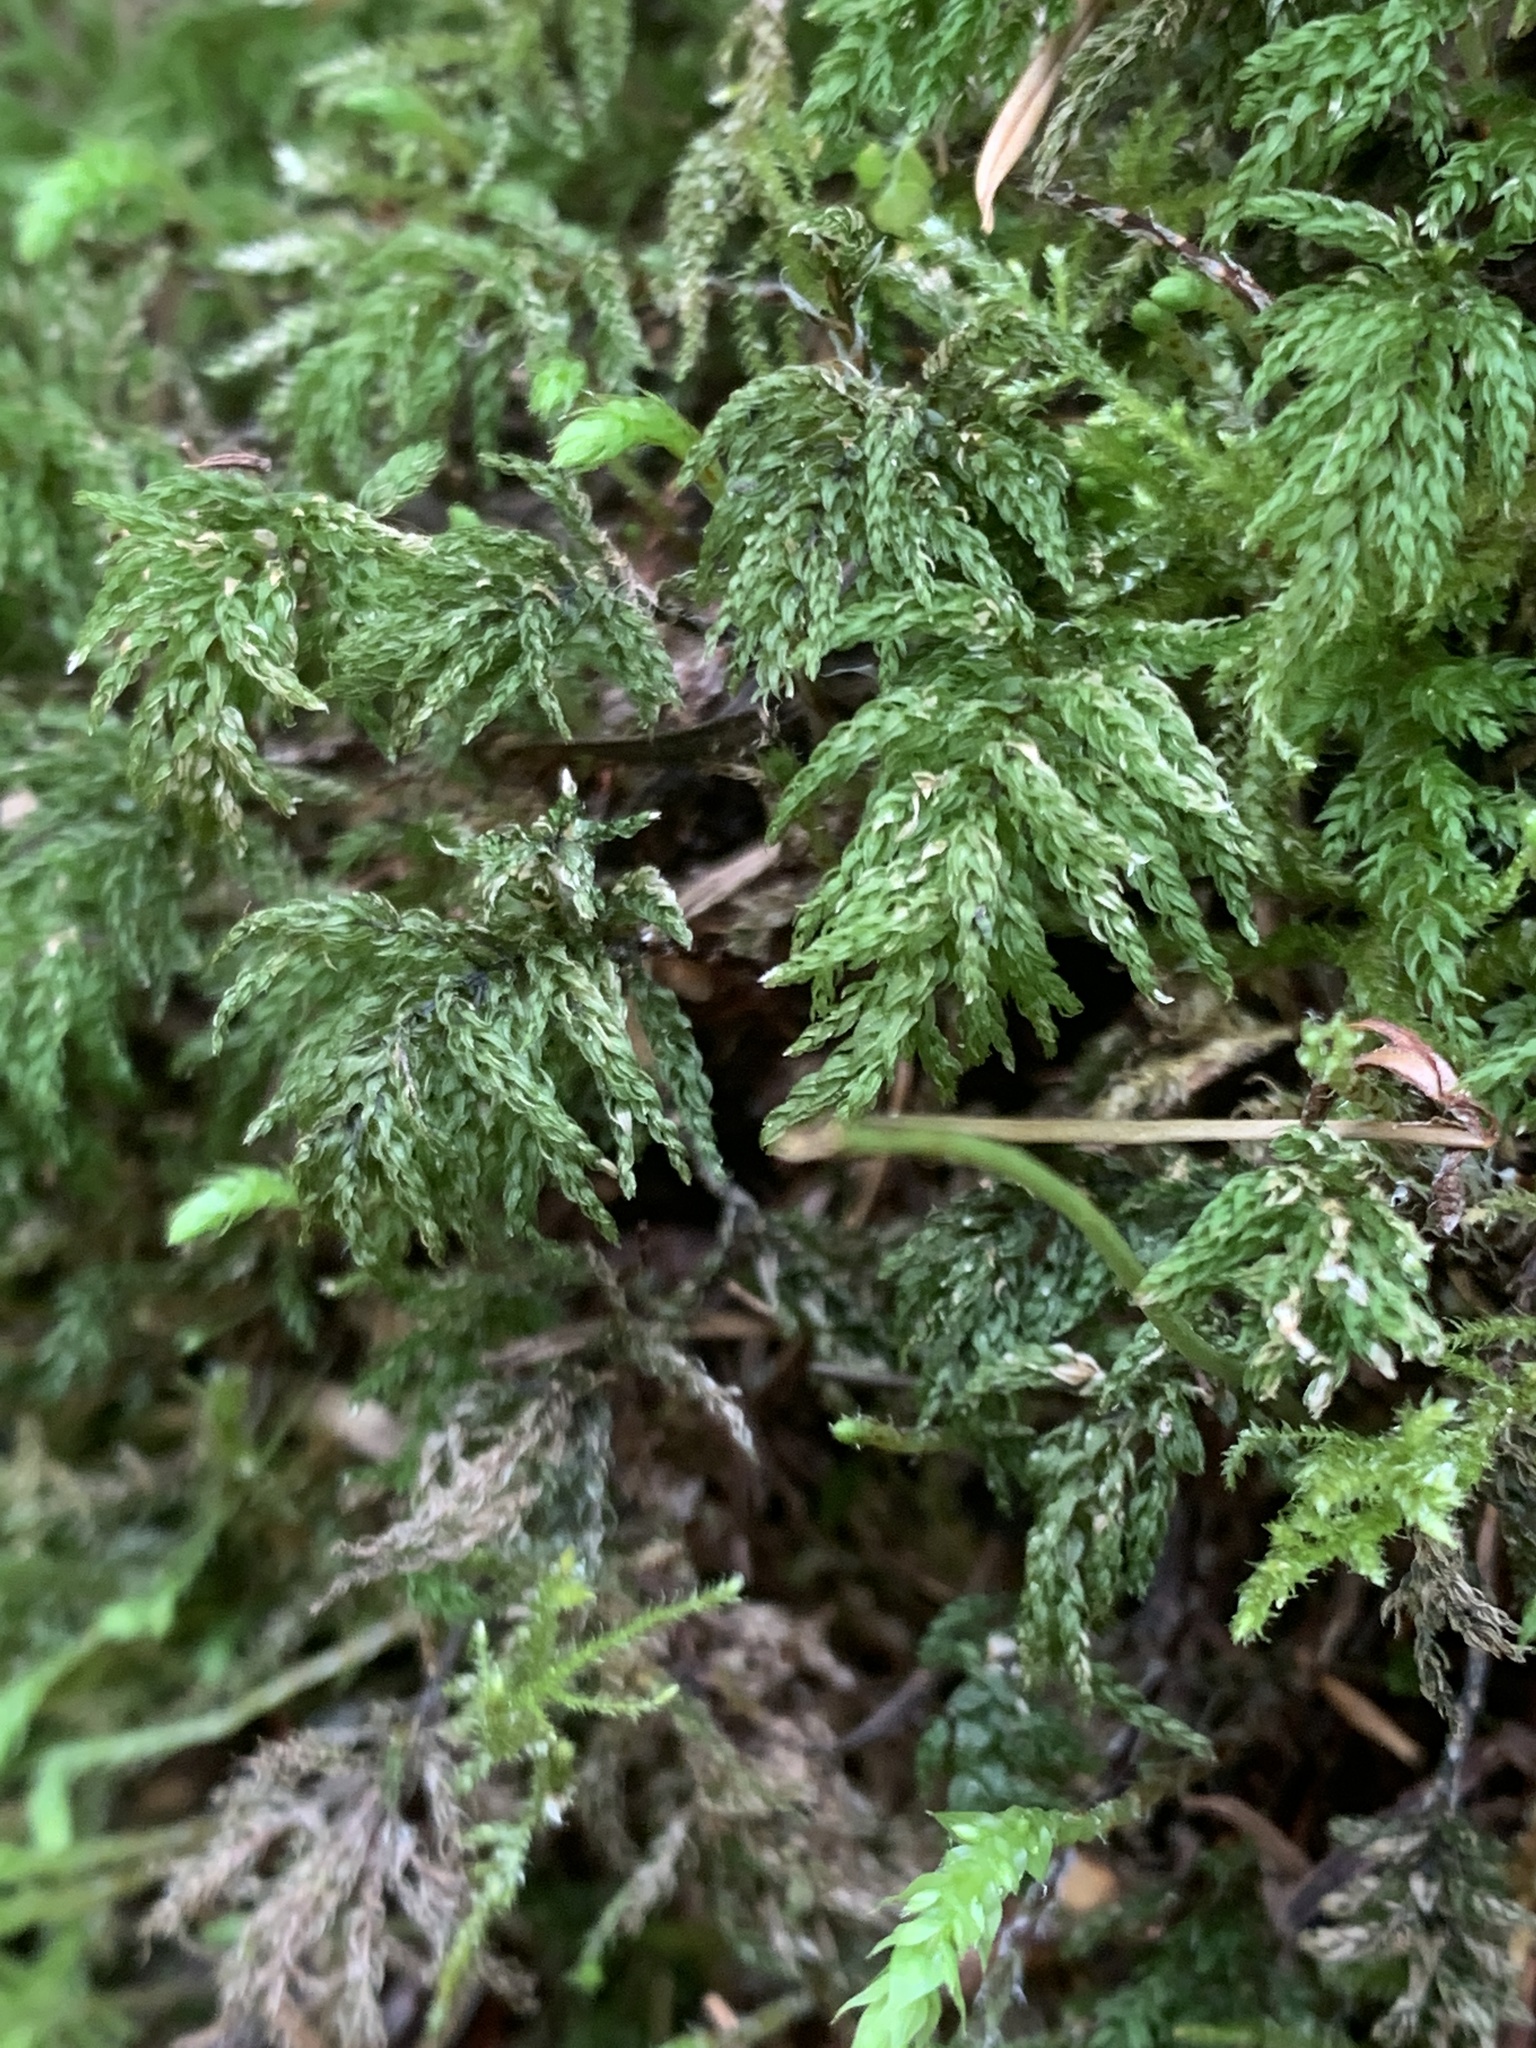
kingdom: Plantae
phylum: Bryophyta
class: Bryopsida
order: Bryales
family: Mniaceae
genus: Leucolepis
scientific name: Leucolepis acanthoneura
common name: Leucolepis umbrella moss
